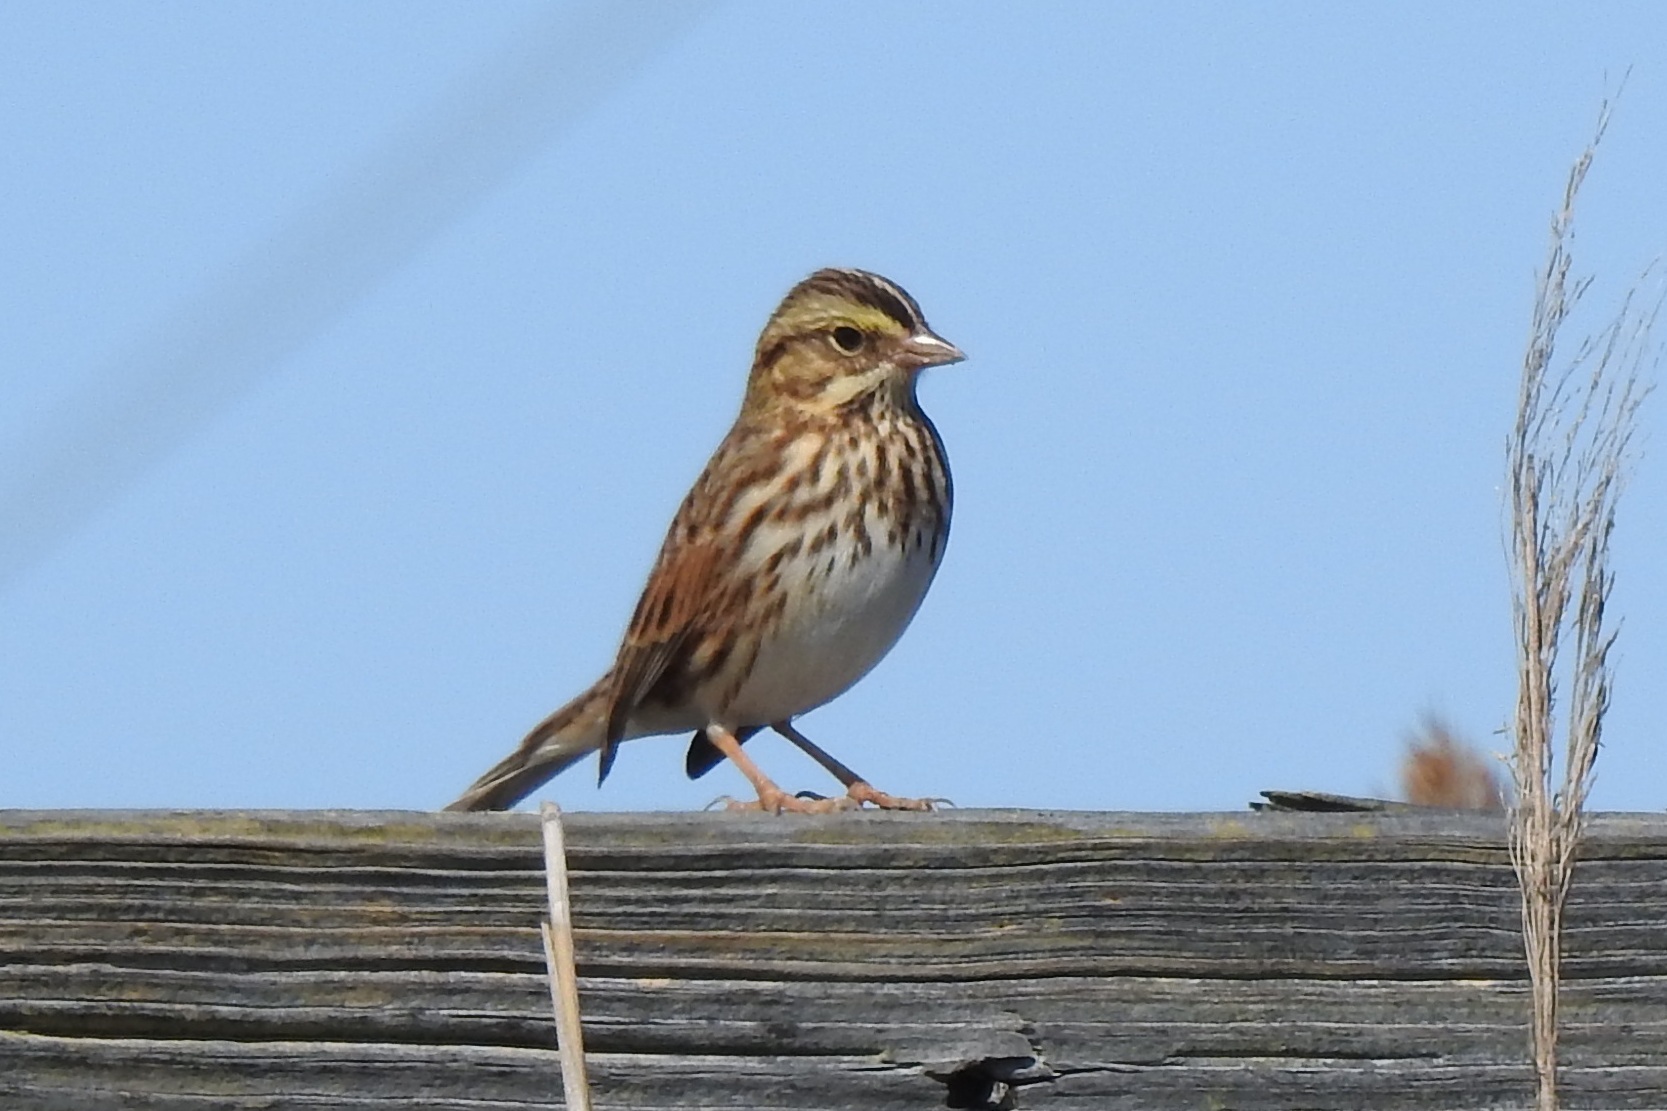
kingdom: Animalia
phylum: Chordata
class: Aves
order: Passeriformes
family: Passerellidae
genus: Passerculus
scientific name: Passerculus sandwichensis
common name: Savannah sparrow
